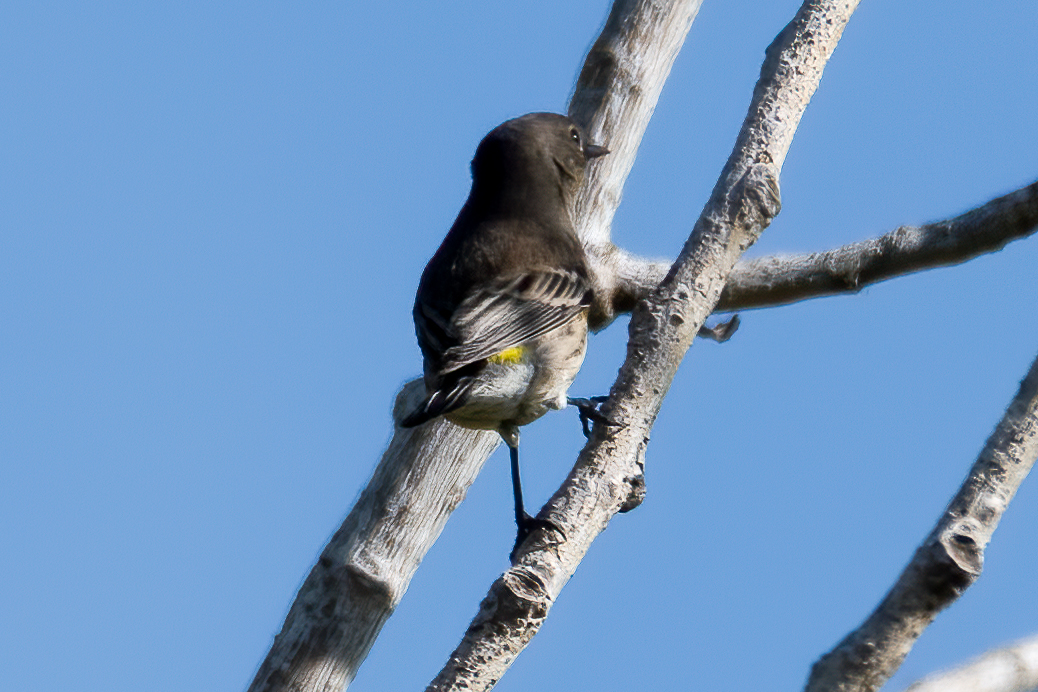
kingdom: Animalia
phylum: Chordata
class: Aves
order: Passeriformes
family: Parulidae
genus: Setophaga
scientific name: Setophaga coronata
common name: Myrtle warbler
